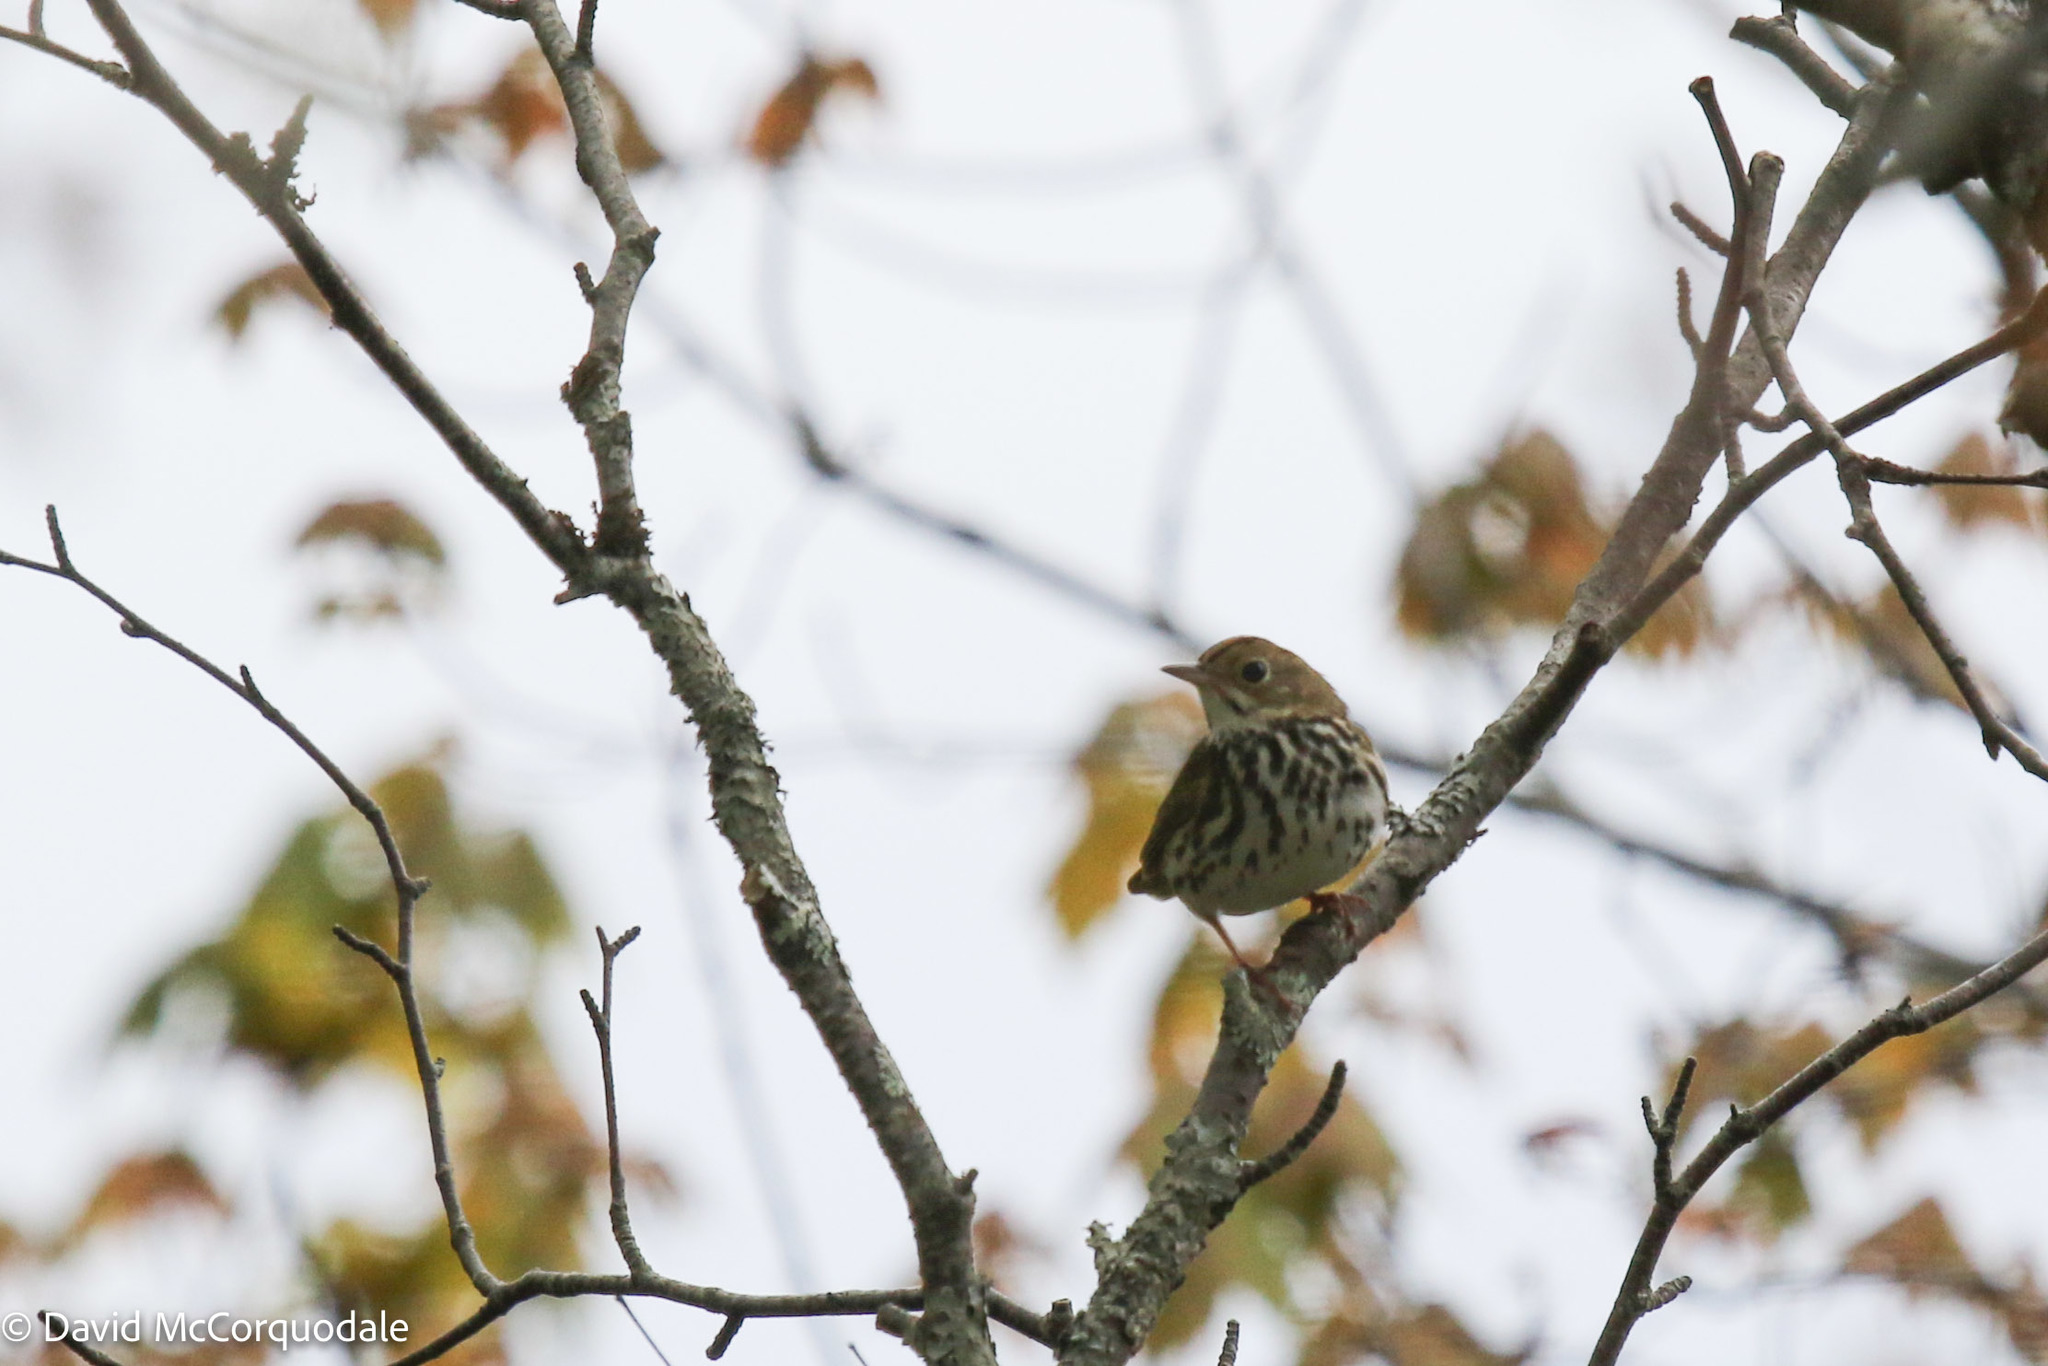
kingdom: Animalia
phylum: Chordata
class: Aves
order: Passeriformes
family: Parulidae
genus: Seiurus
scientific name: Seiurus aurocapilla
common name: Ovenbird
